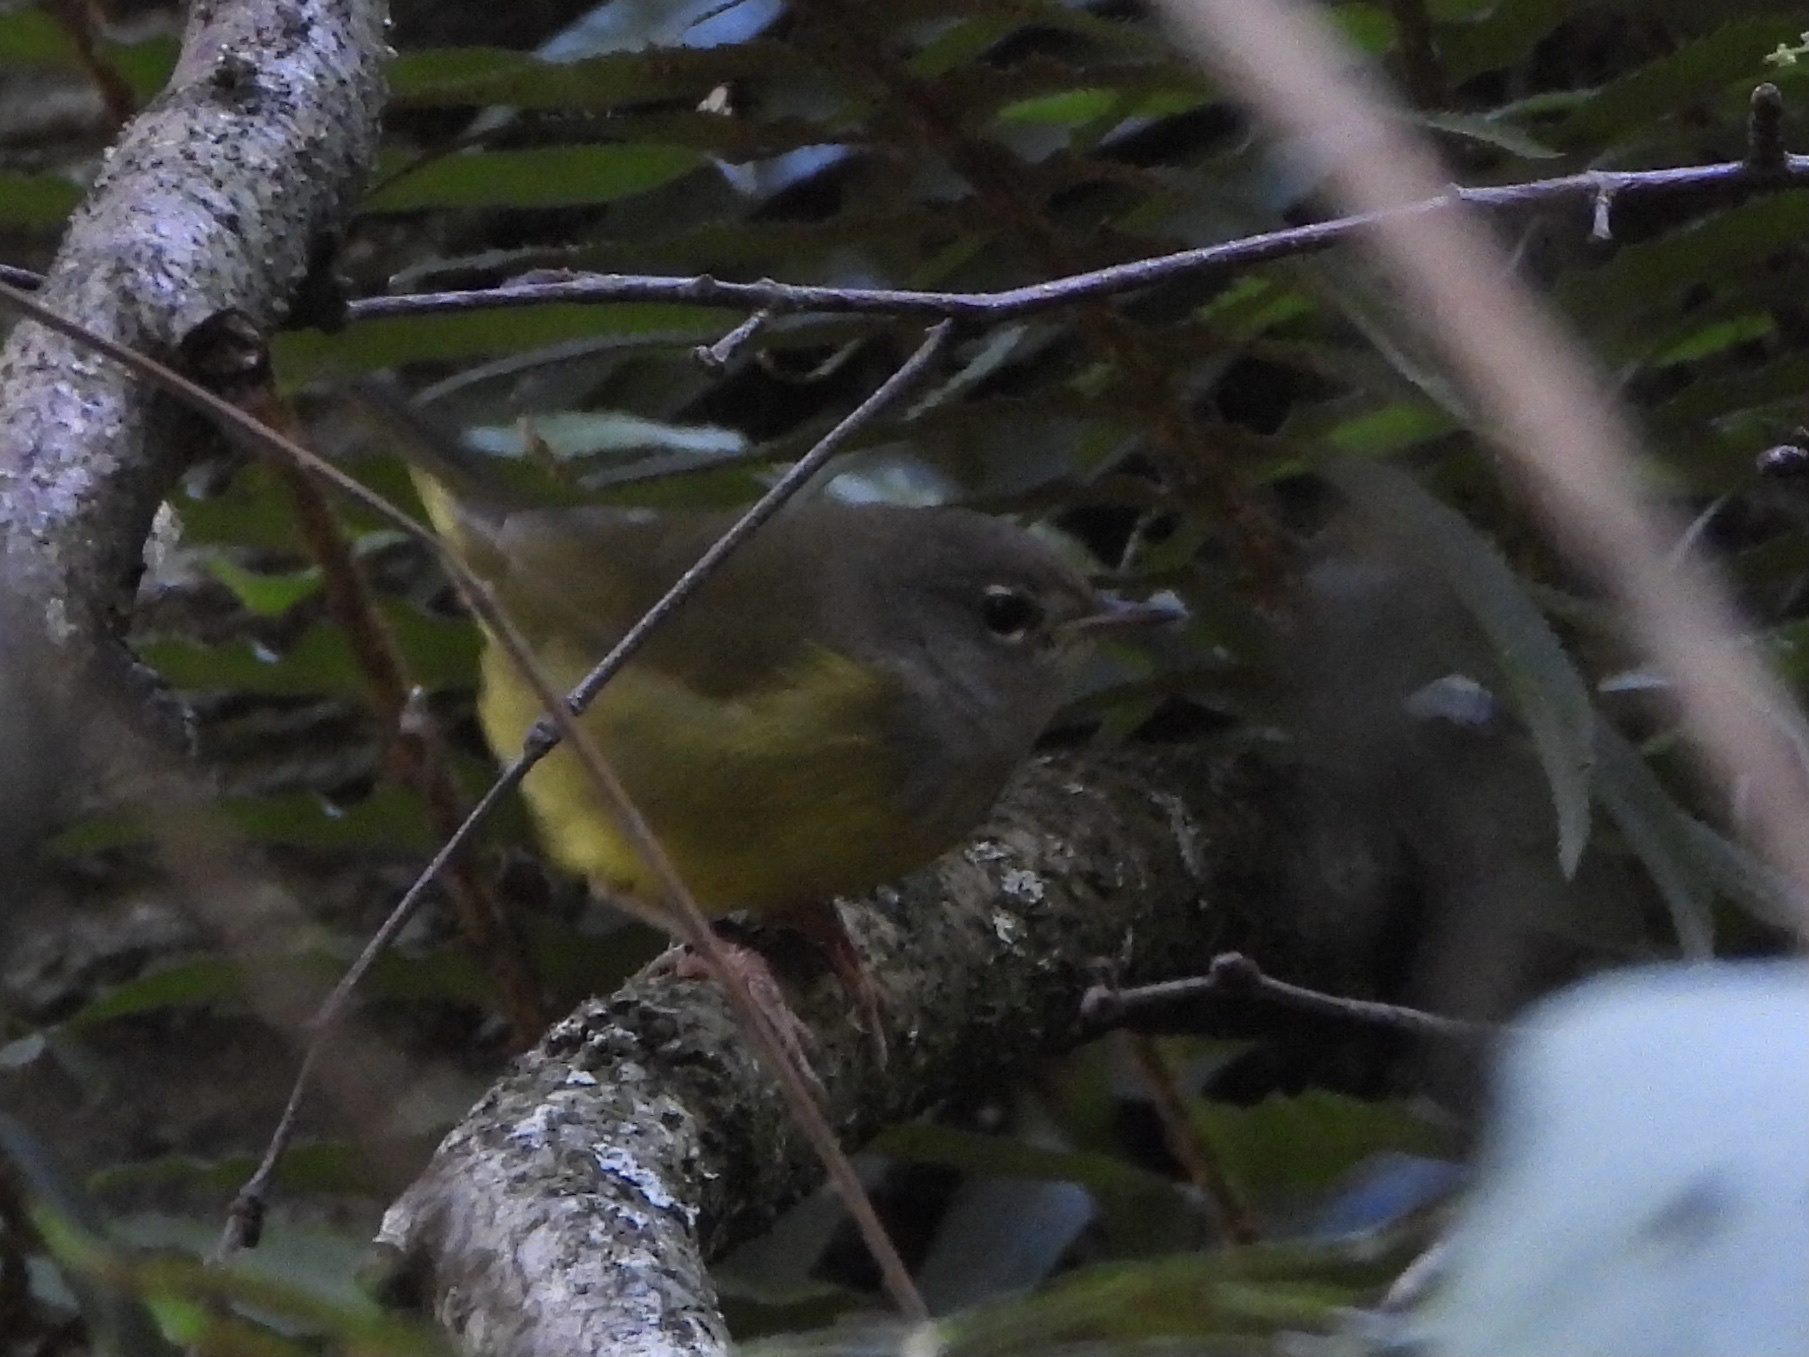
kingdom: Animalia
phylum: Chordata
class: Aves
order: Passeriformes
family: Parulidae
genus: Geothlypis
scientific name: Geothlypis tolmiei
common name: Macgillivray's warbler
